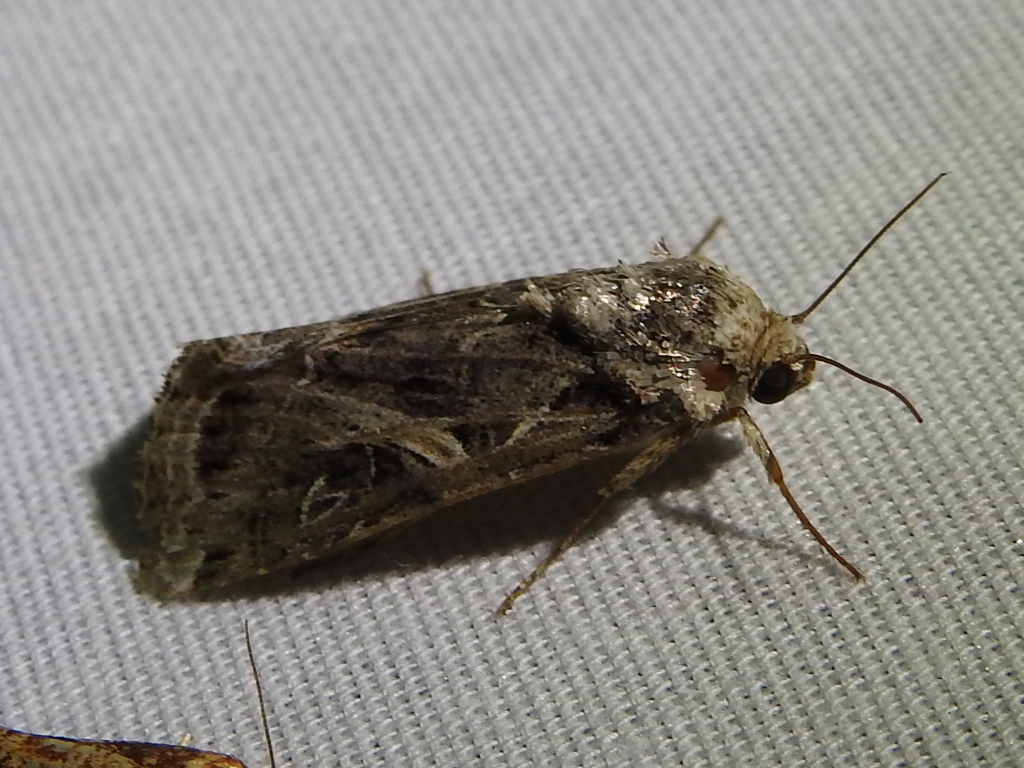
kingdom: Animalia
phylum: Arthropoda
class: Insecta
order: Lepidoptera
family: Noctuidae
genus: Spodoptera
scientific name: Spodoptera ornithogalli
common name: Yellow-striped armyworm
